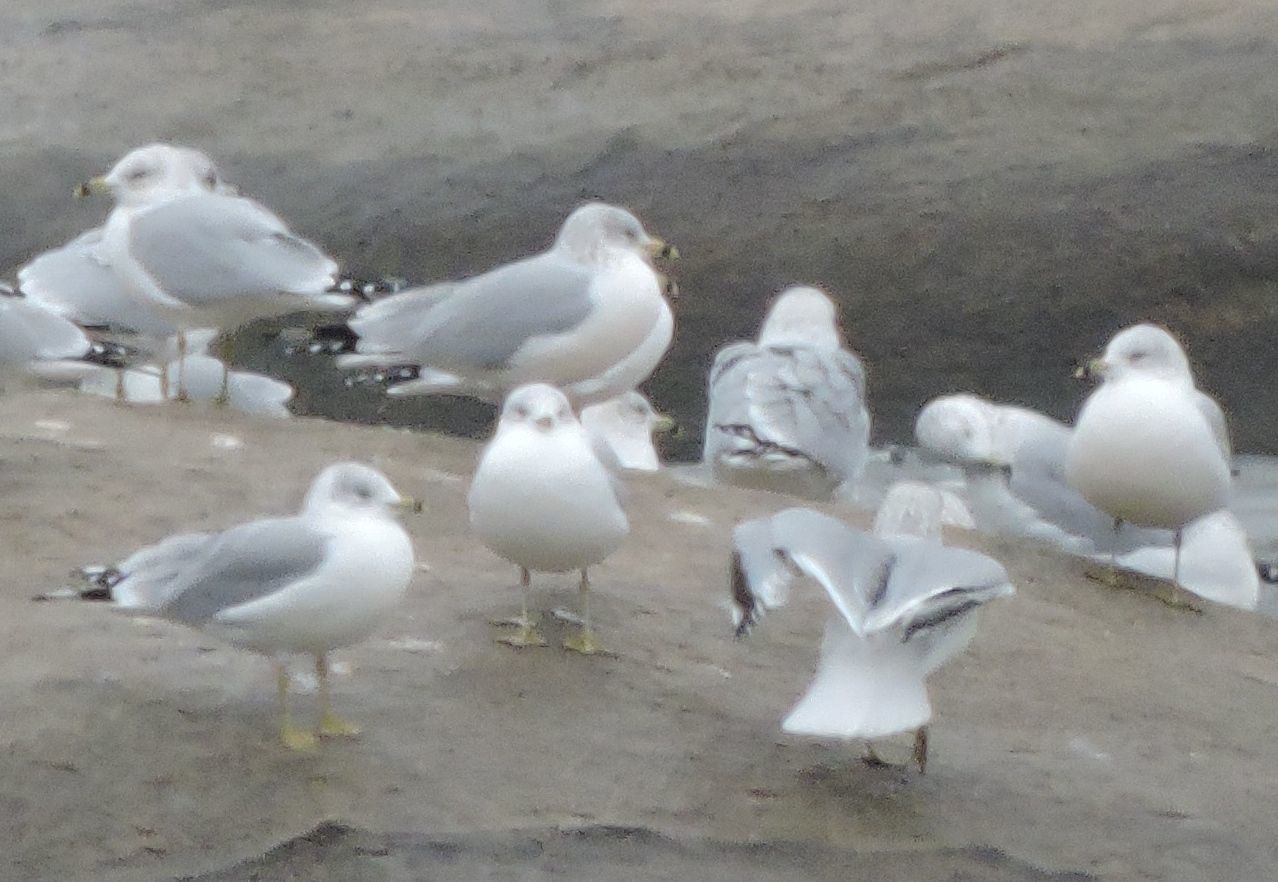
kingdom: Animalia
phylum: Chordata
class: Aves
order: Charadriiformes
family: Laridae
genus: Larus
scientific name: Larus delawarensis
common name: Ring-billed gull
